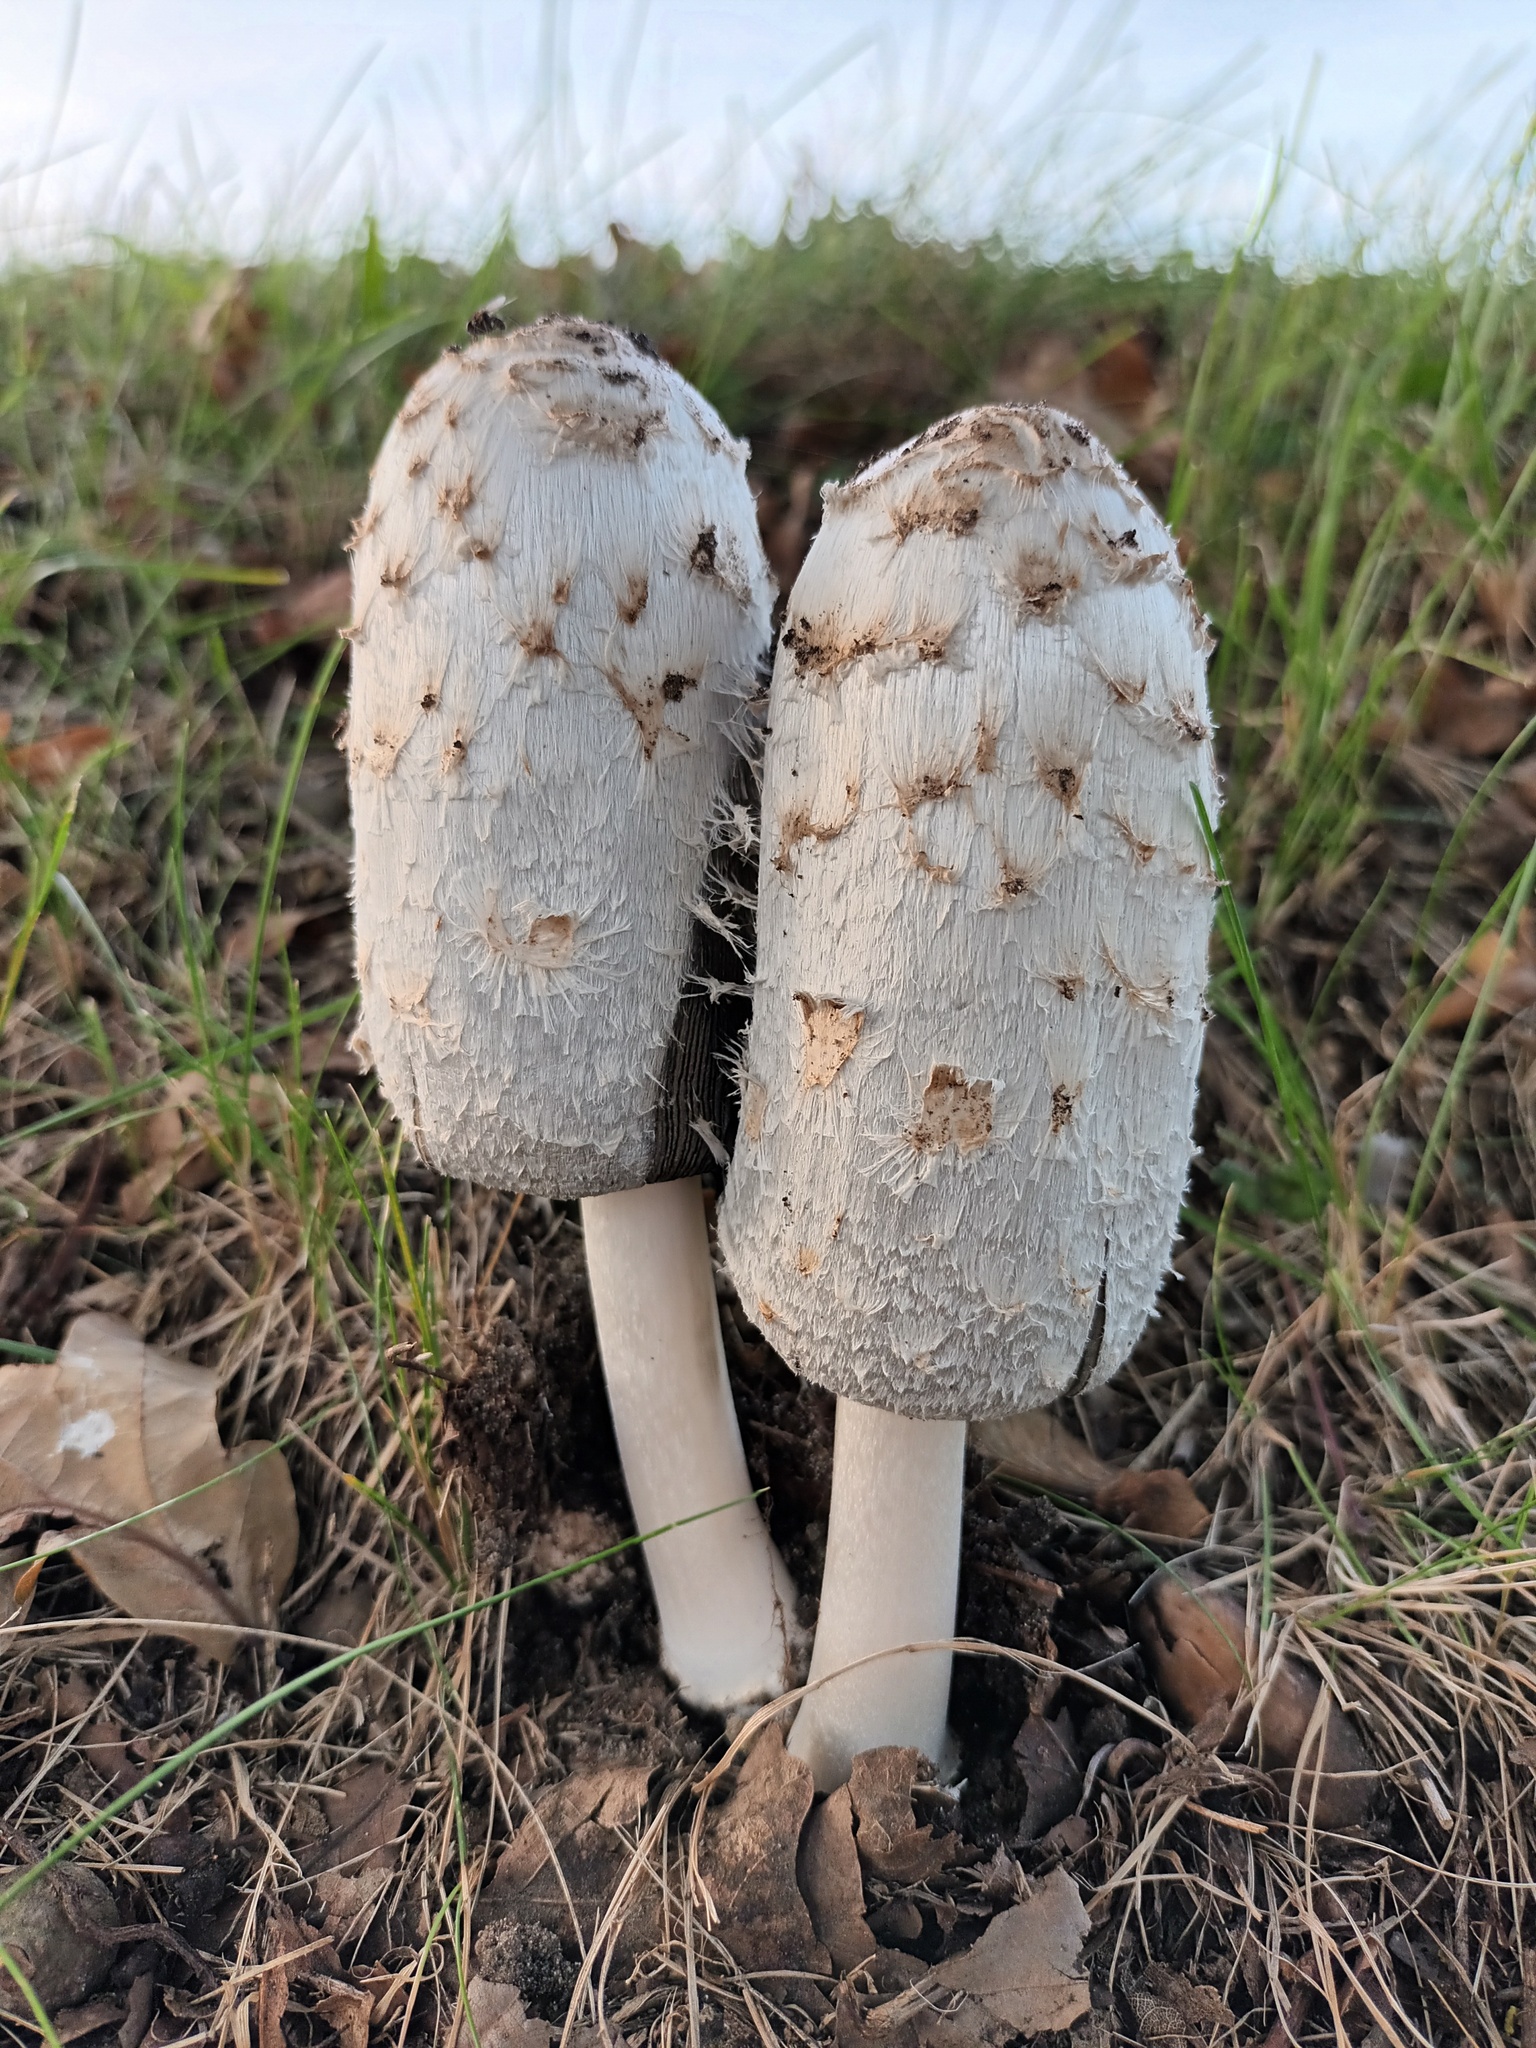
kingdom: Fungi
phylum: Basidiomycota
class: Agaricomycetes
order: Agaricales
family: Agaricaceae
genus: Coprinus
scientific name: Coprinus comatus
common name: Lawyer's wig
